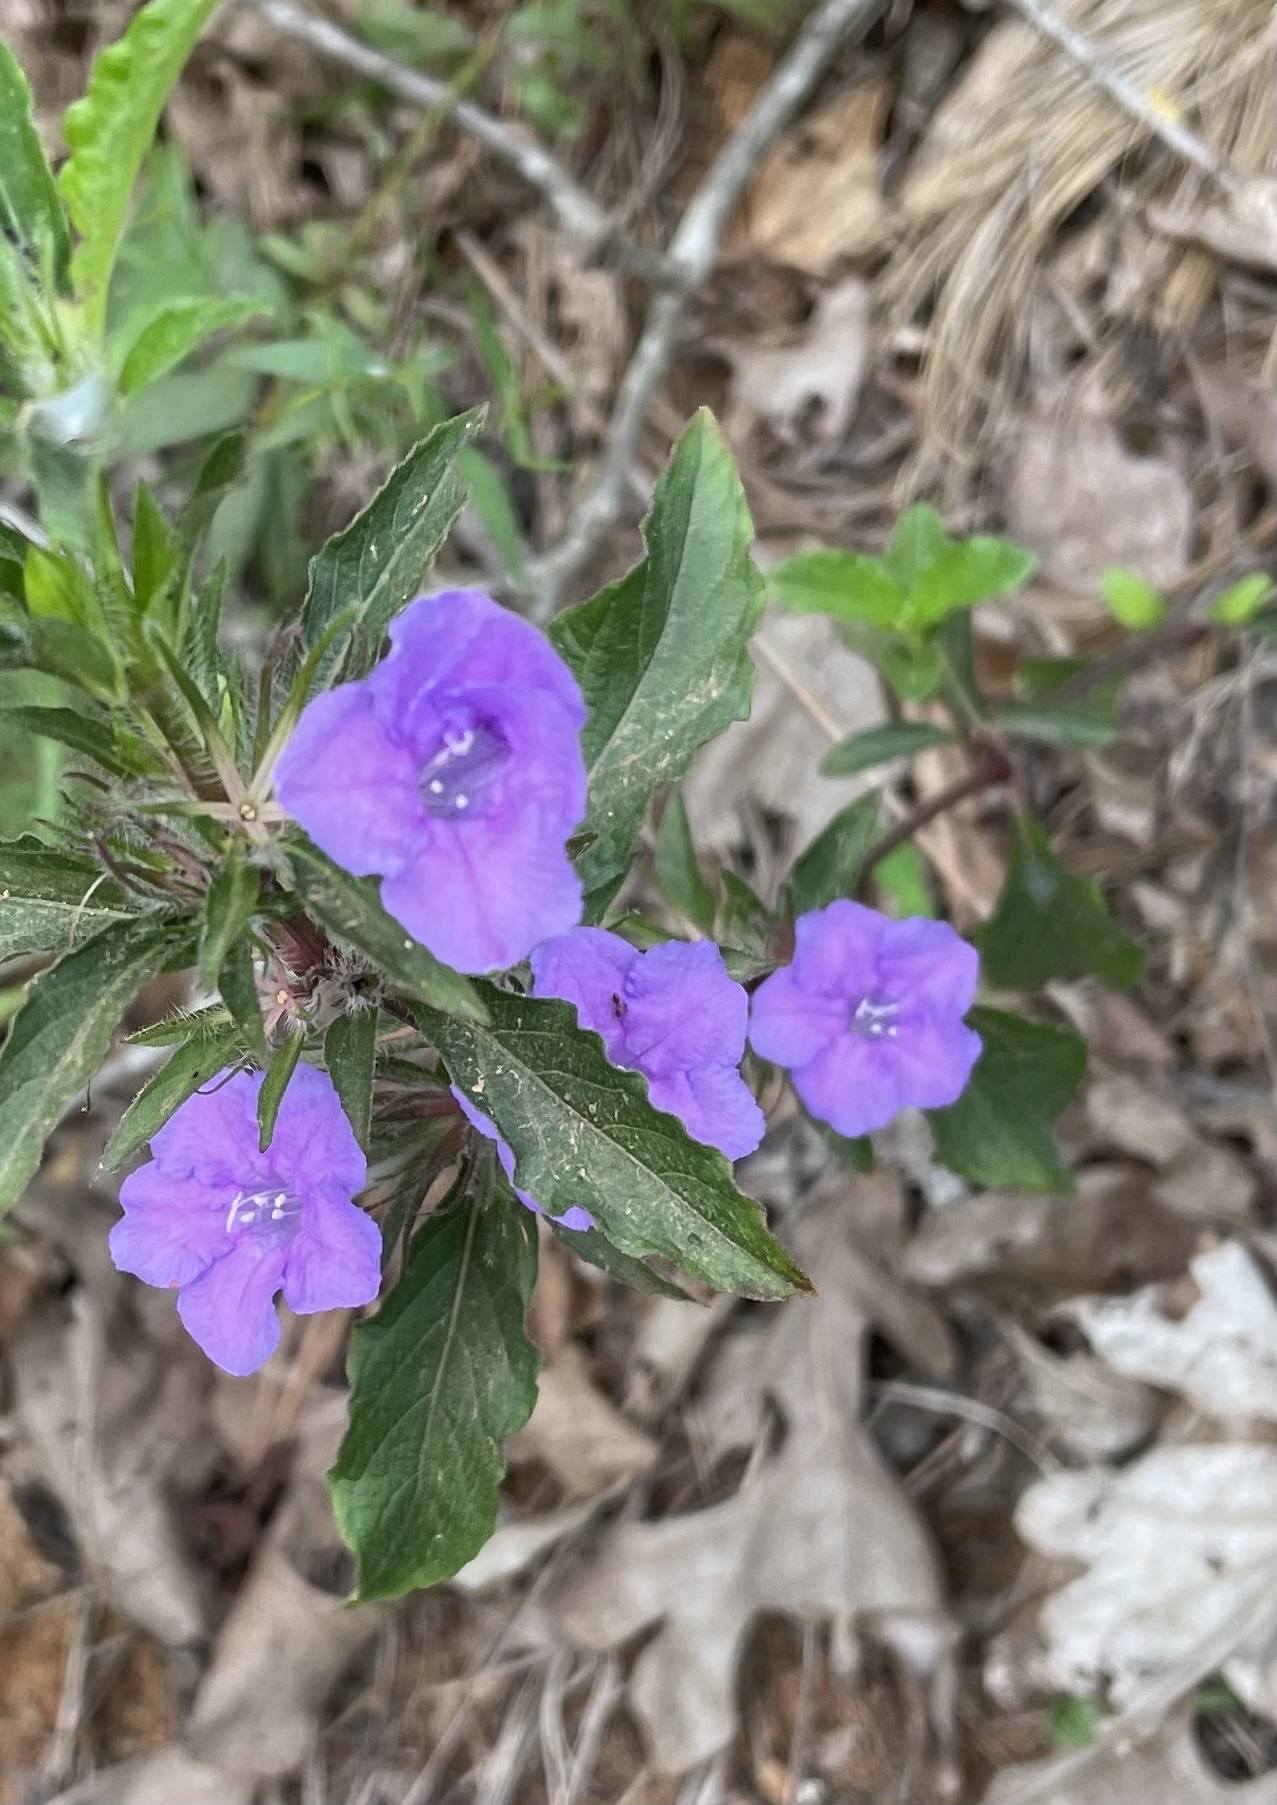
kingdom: Plantae
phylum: Tracheophyta
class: Magnoliopsida
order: Lamiales
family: Acanthaceae
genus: Ruellia
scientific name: Ruellia caroliniensis
